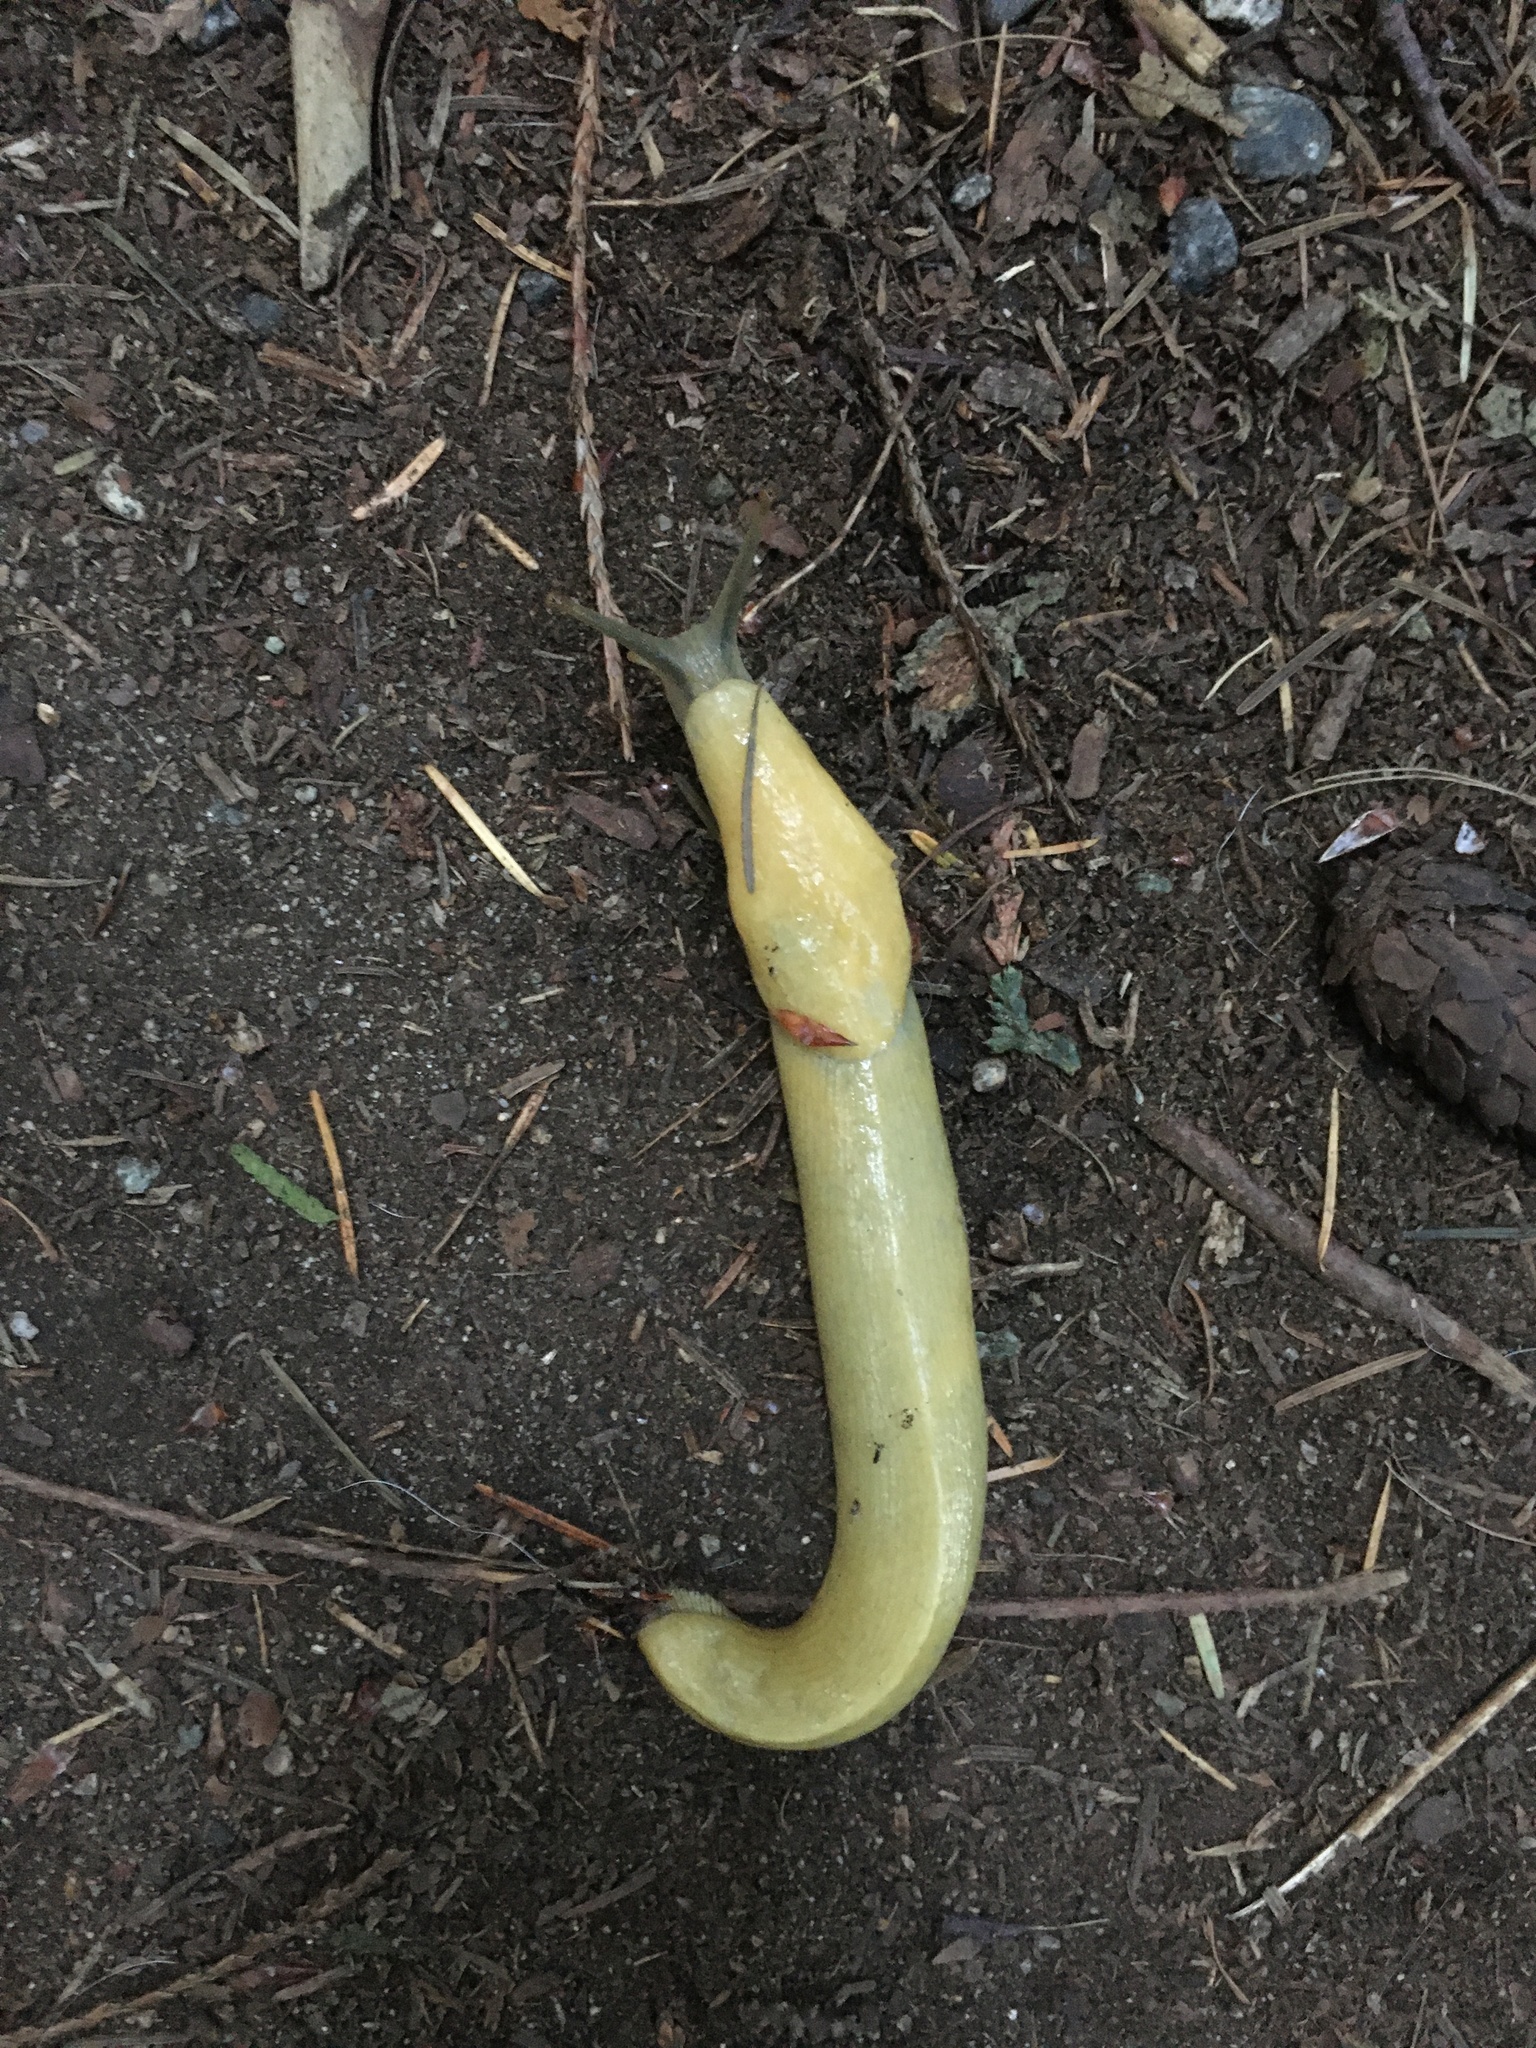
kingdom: Animalia
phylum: Mollusca
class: Gastropoda
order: Stylommatophora
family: Ariolimacidae
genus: Ariolimax
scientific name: Ariolimax columbianus
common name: Pacific banana slug
